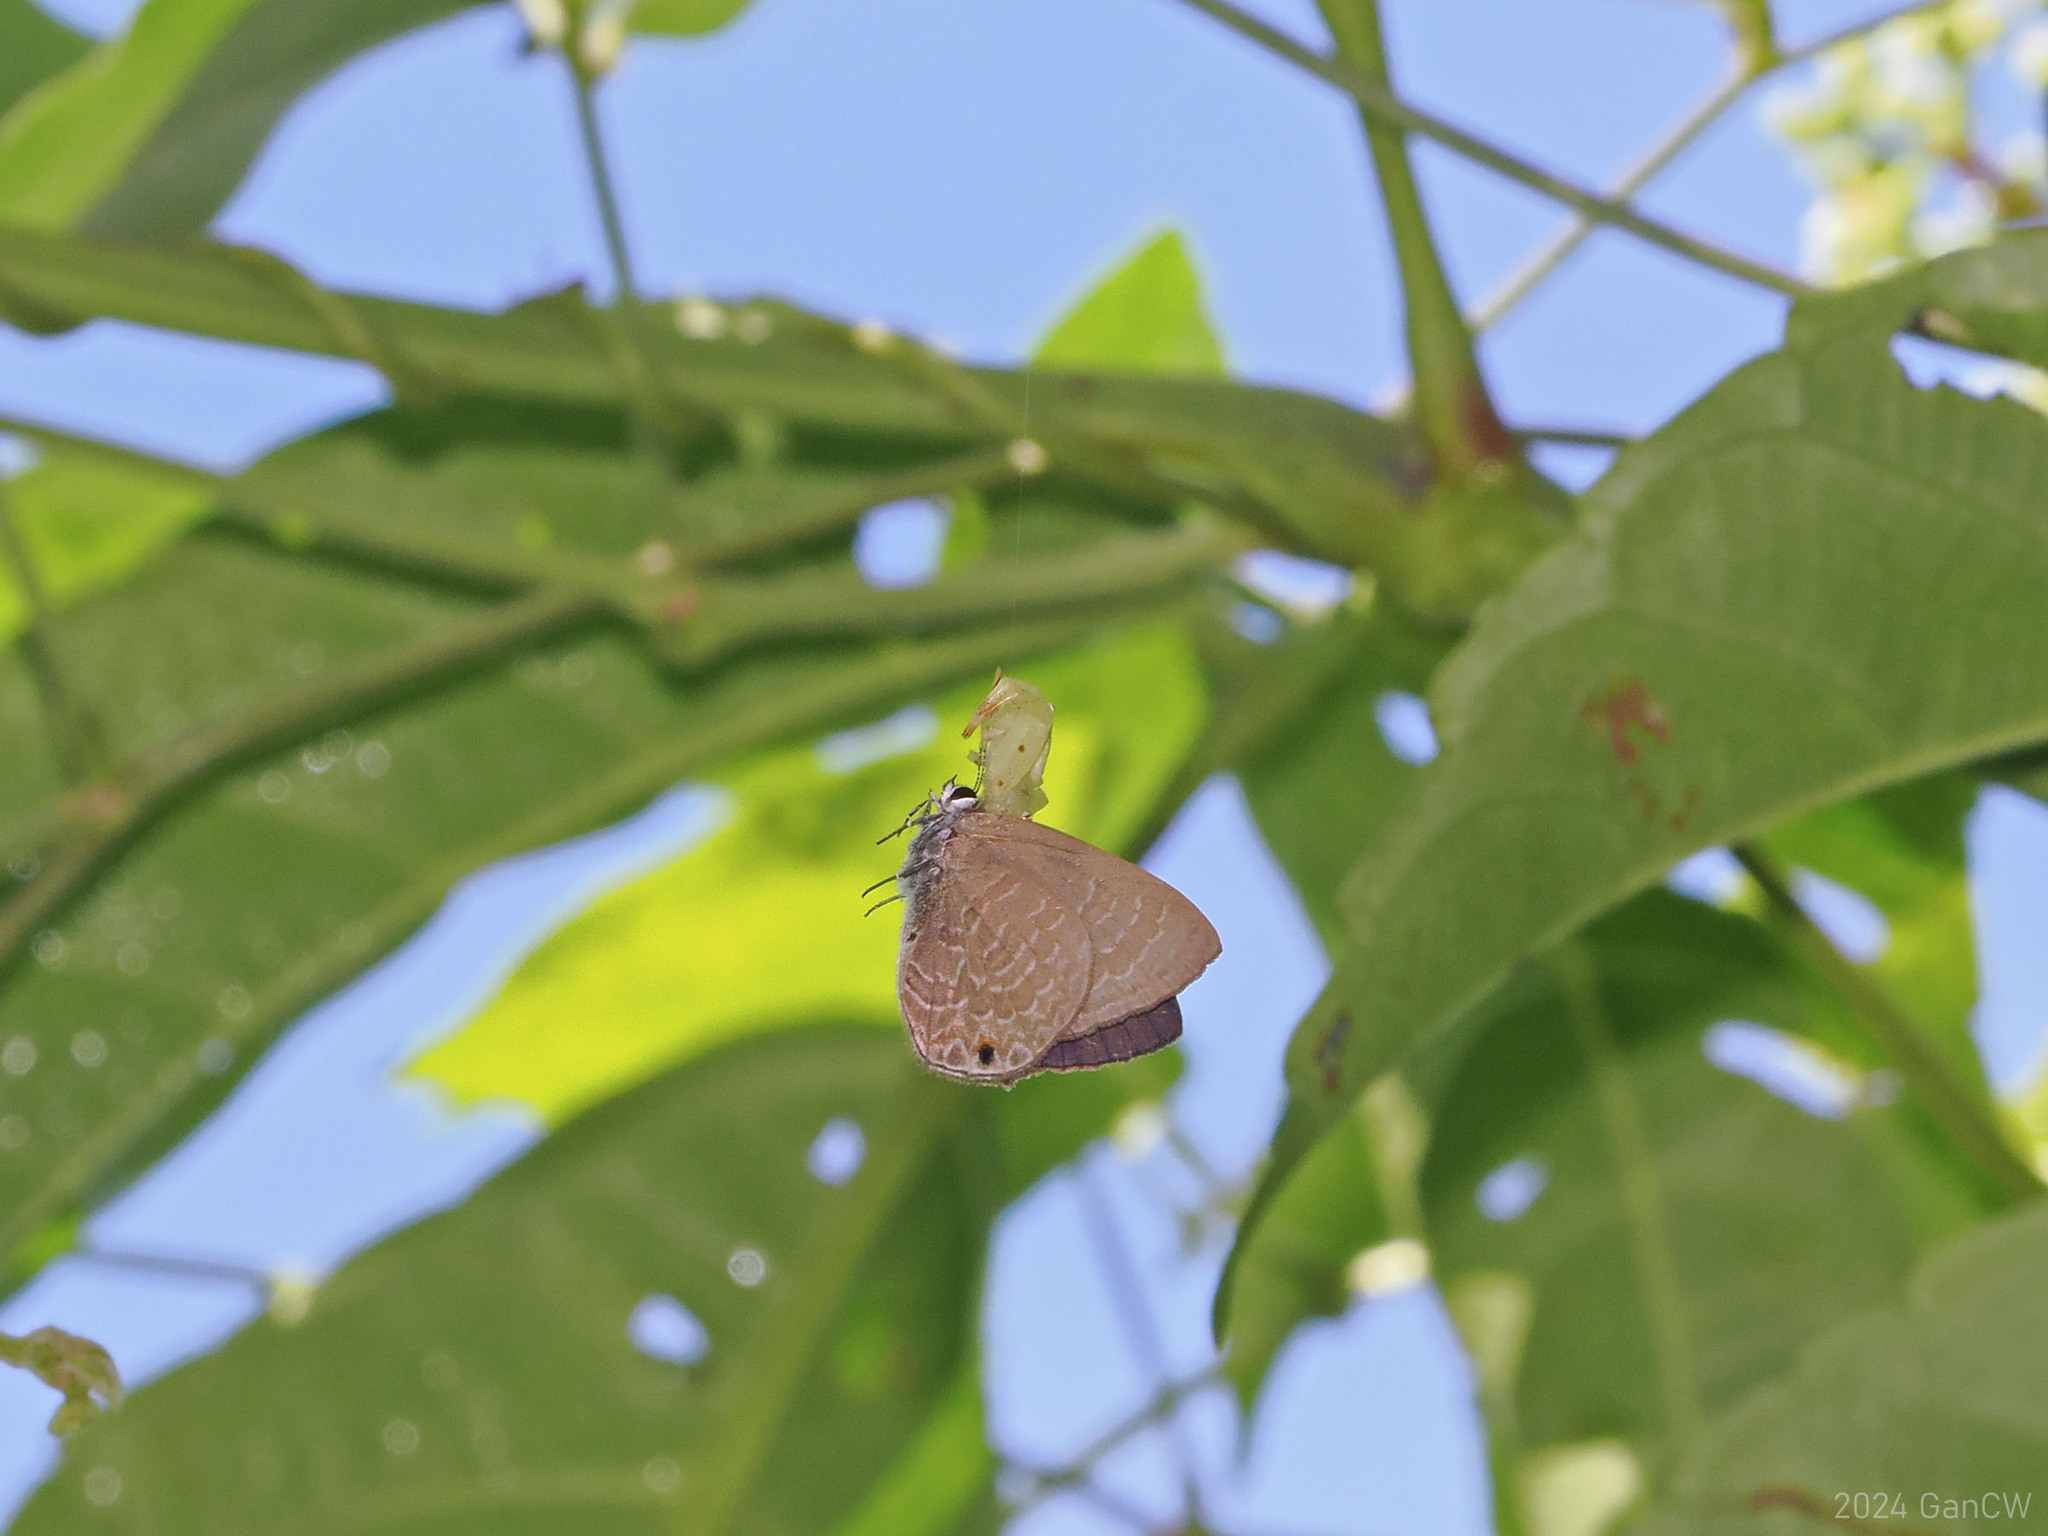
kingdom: Animalia
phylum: Arthropoda
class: Insecta
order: Lepidoptera
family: Lycaenidae
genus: Anthene
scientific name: Anthene emolus
